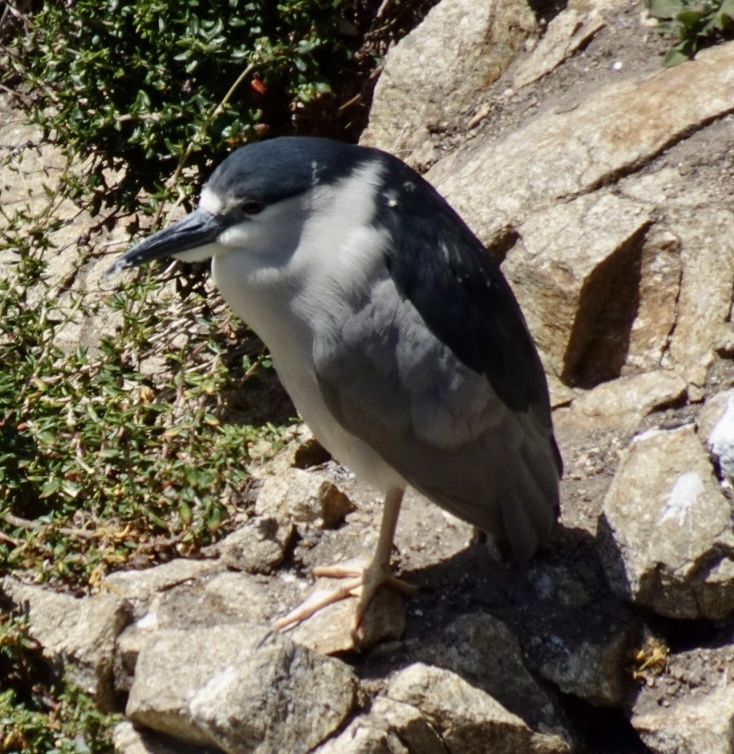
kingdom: Animalia
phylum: Chordata
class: Aves
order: Pelecaniformes
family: Ardeidae
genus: Nycticorax
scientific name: Nycticorax nycticorax
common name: Black-crowned night heron
